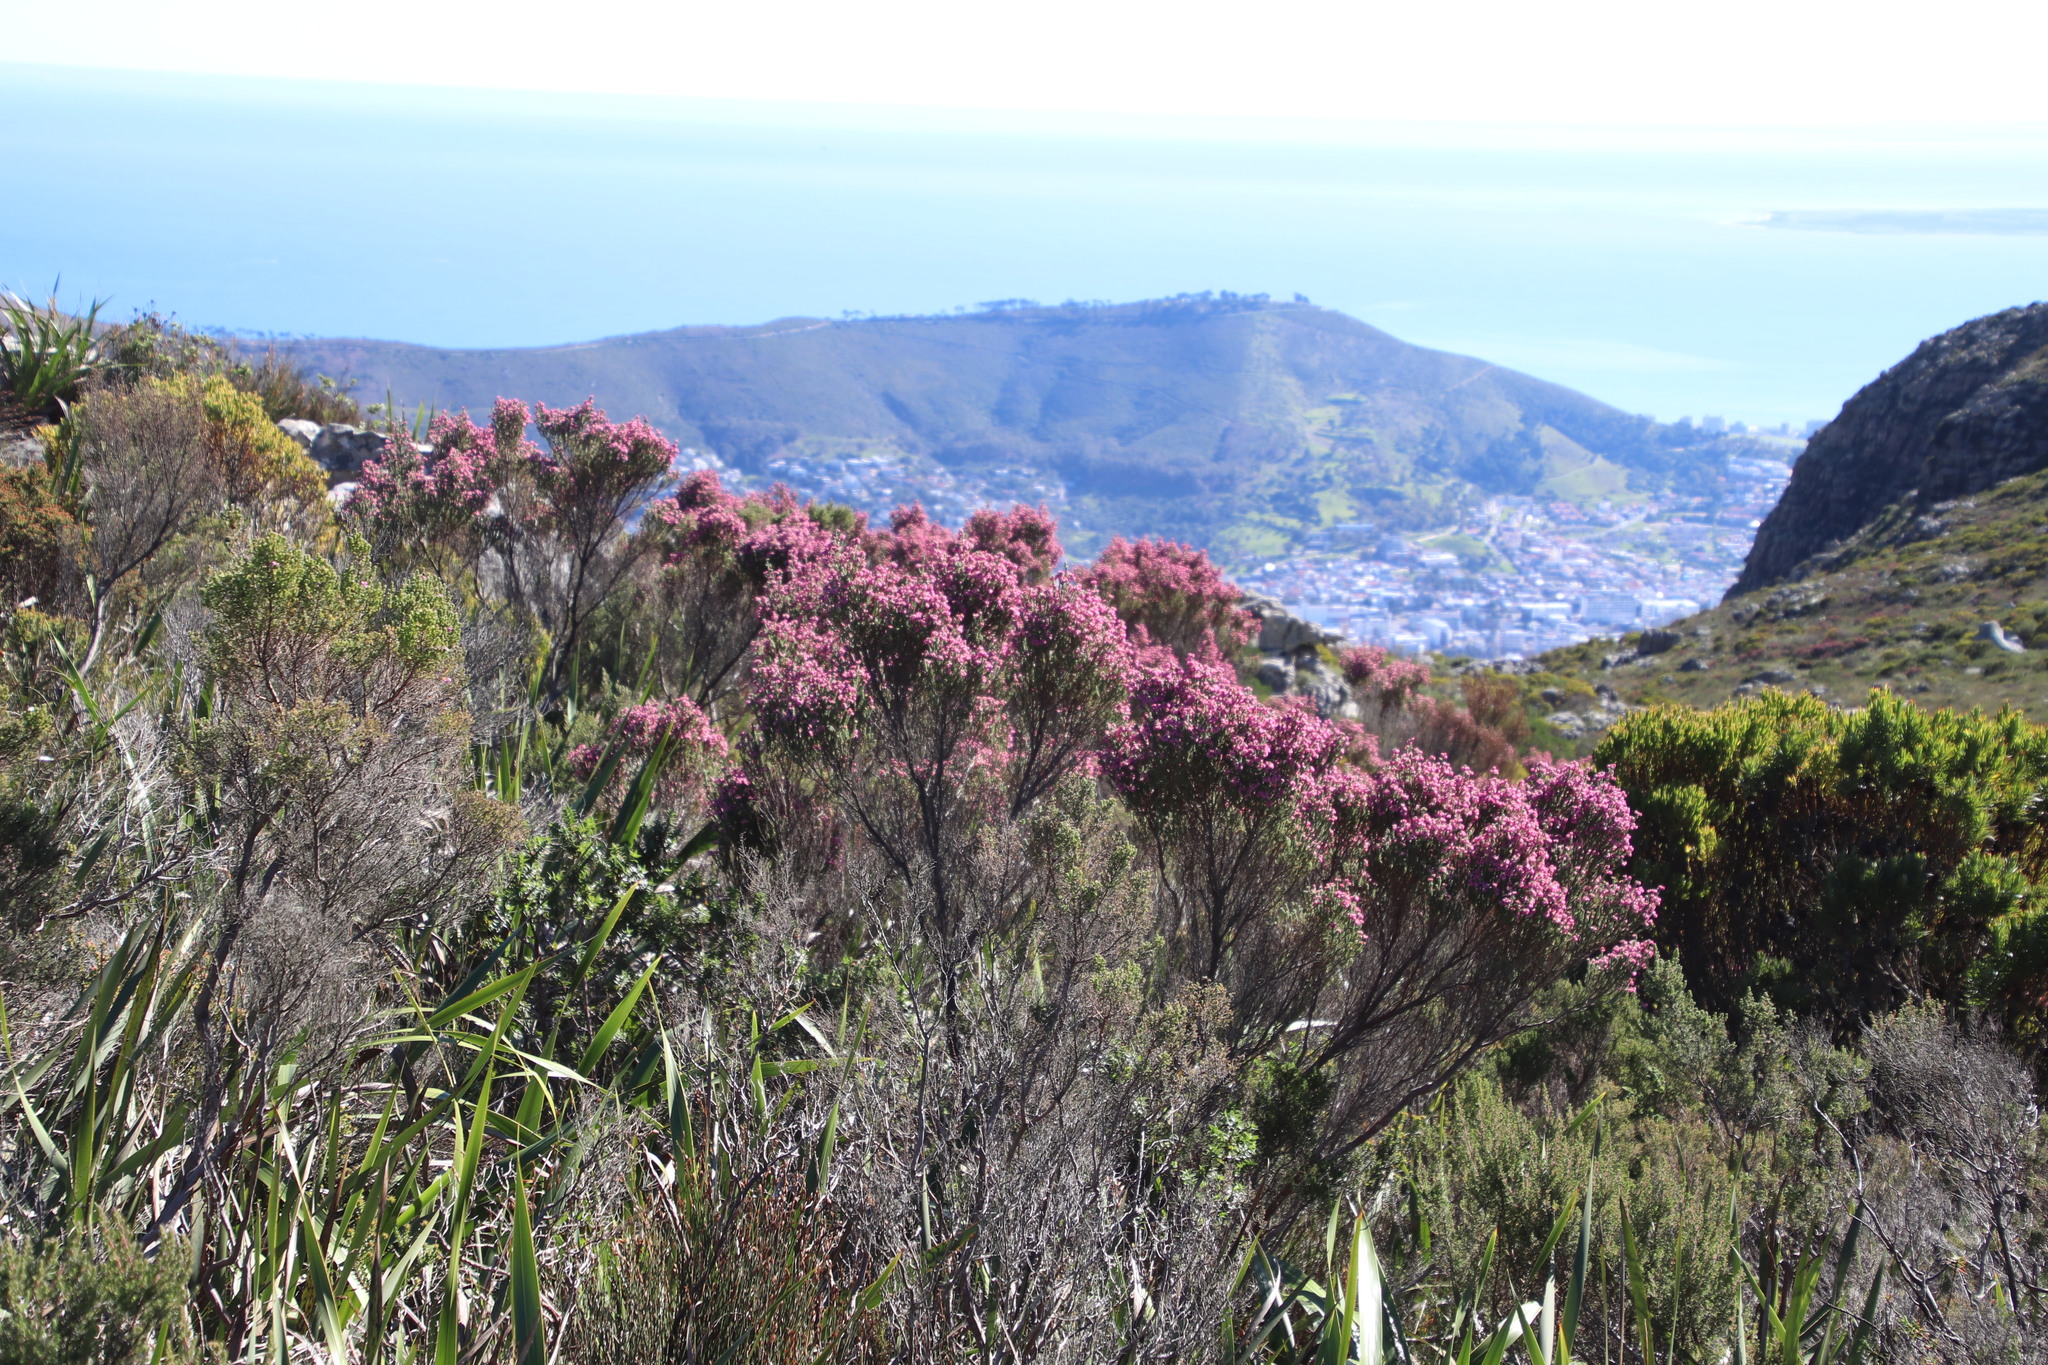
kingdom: Plantae
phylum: Tracheophyta
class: Magnoliopsida
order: Ericales
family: Ericaceae
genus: Erica
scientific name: Erica baccans
